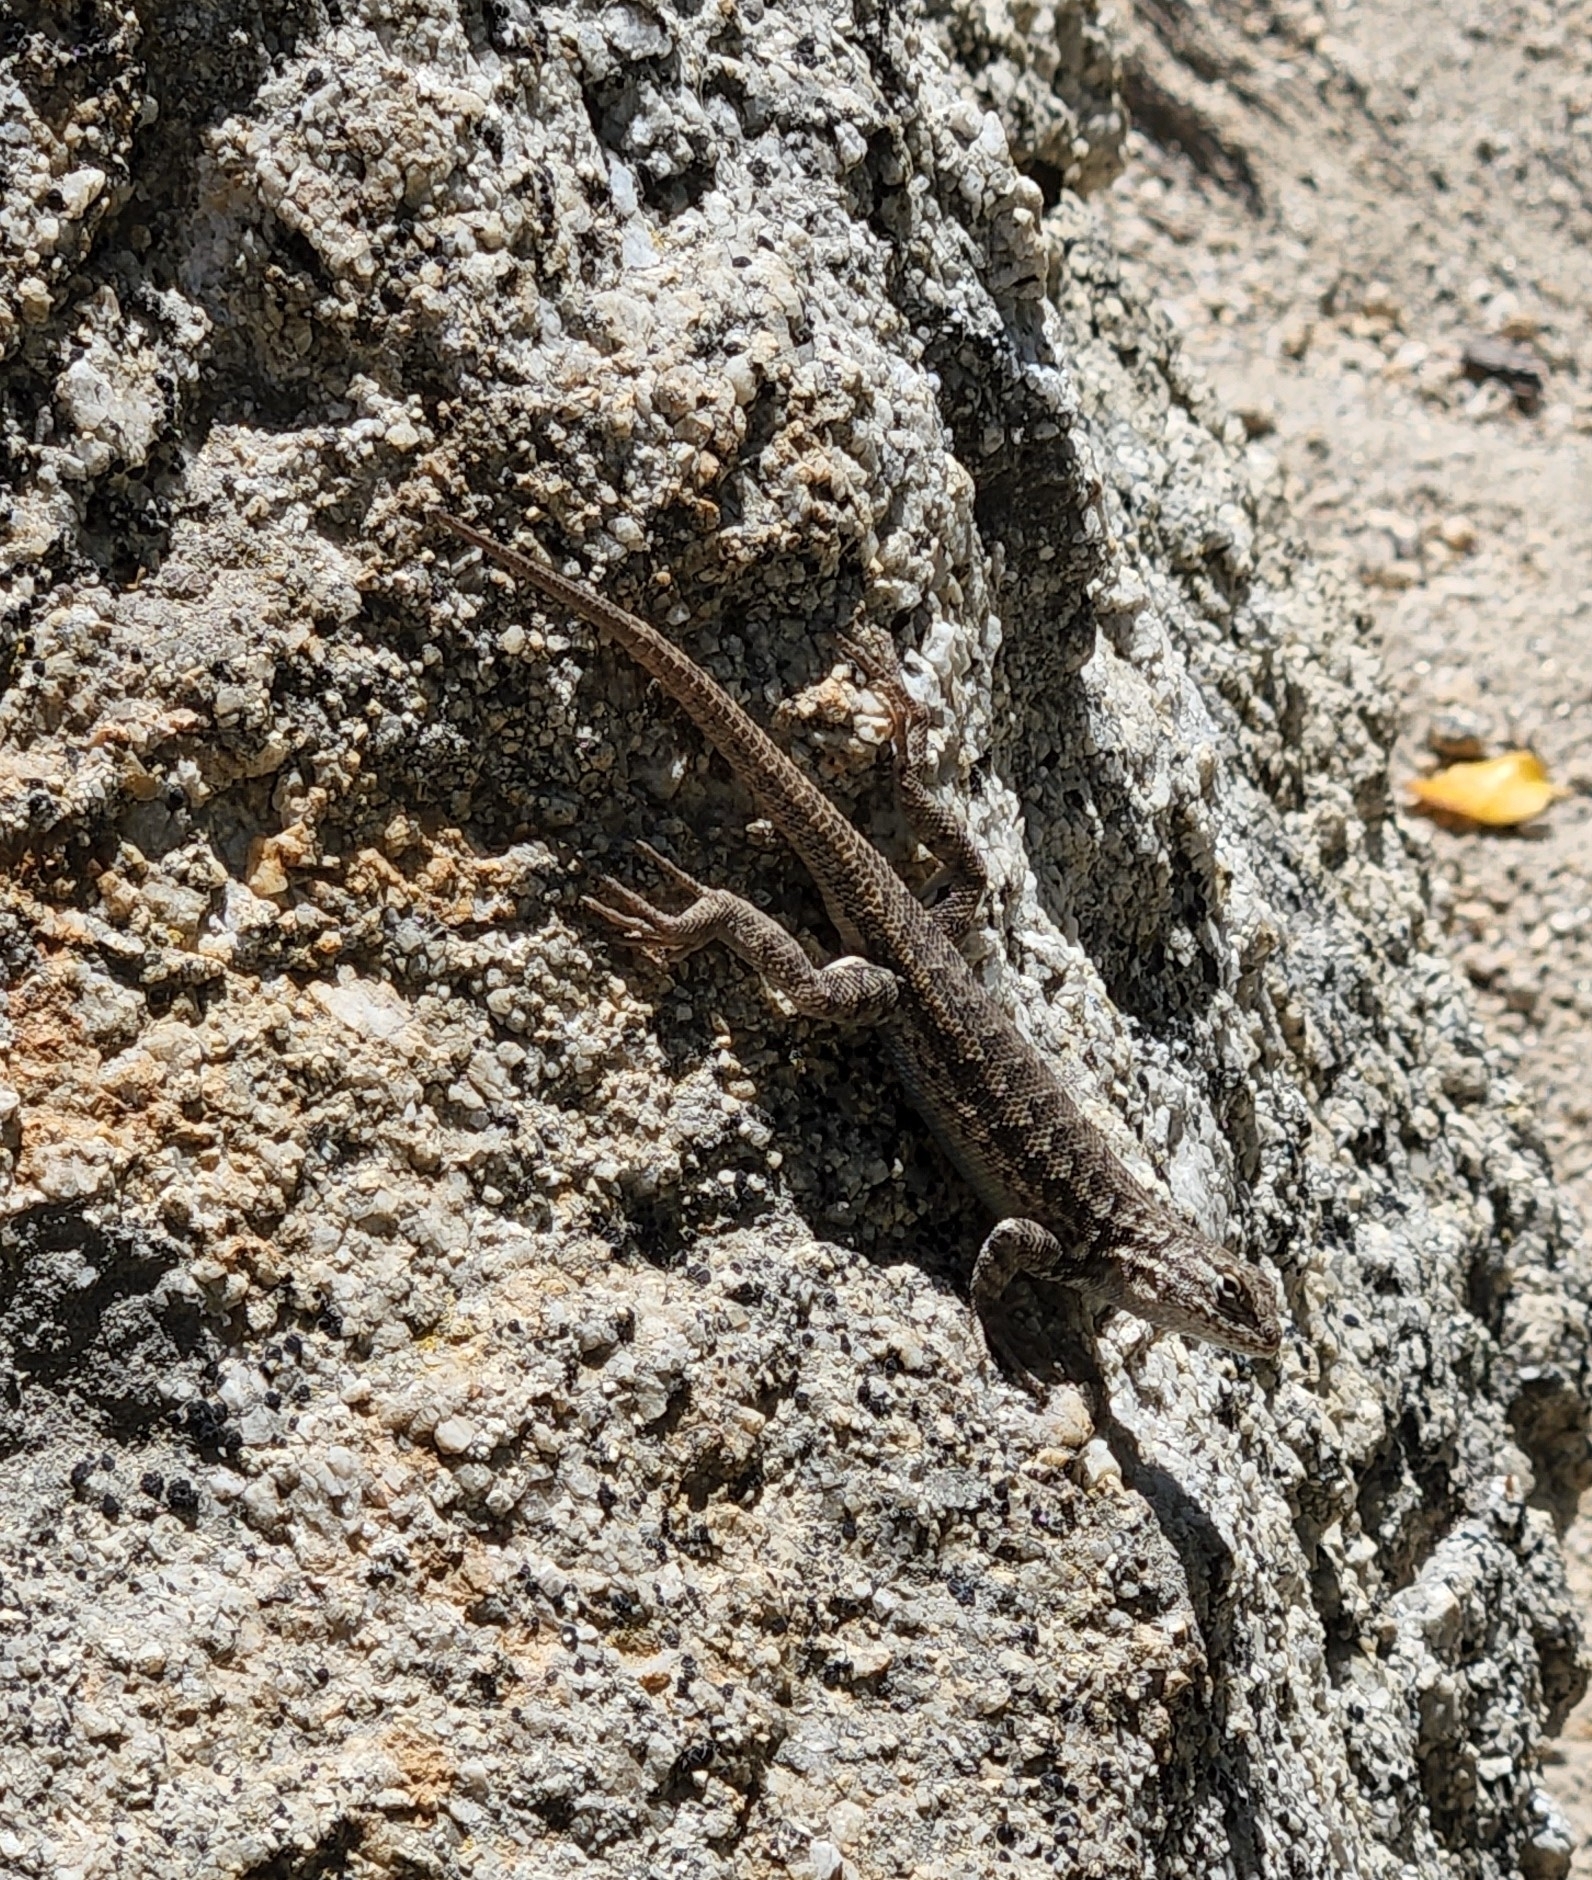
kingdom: Animalia
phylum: Chordata
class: Squamata
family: Phrynosomatidae
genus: Sceloporus
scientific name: Sceloporus graciosus
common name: Sagebrush lizard
